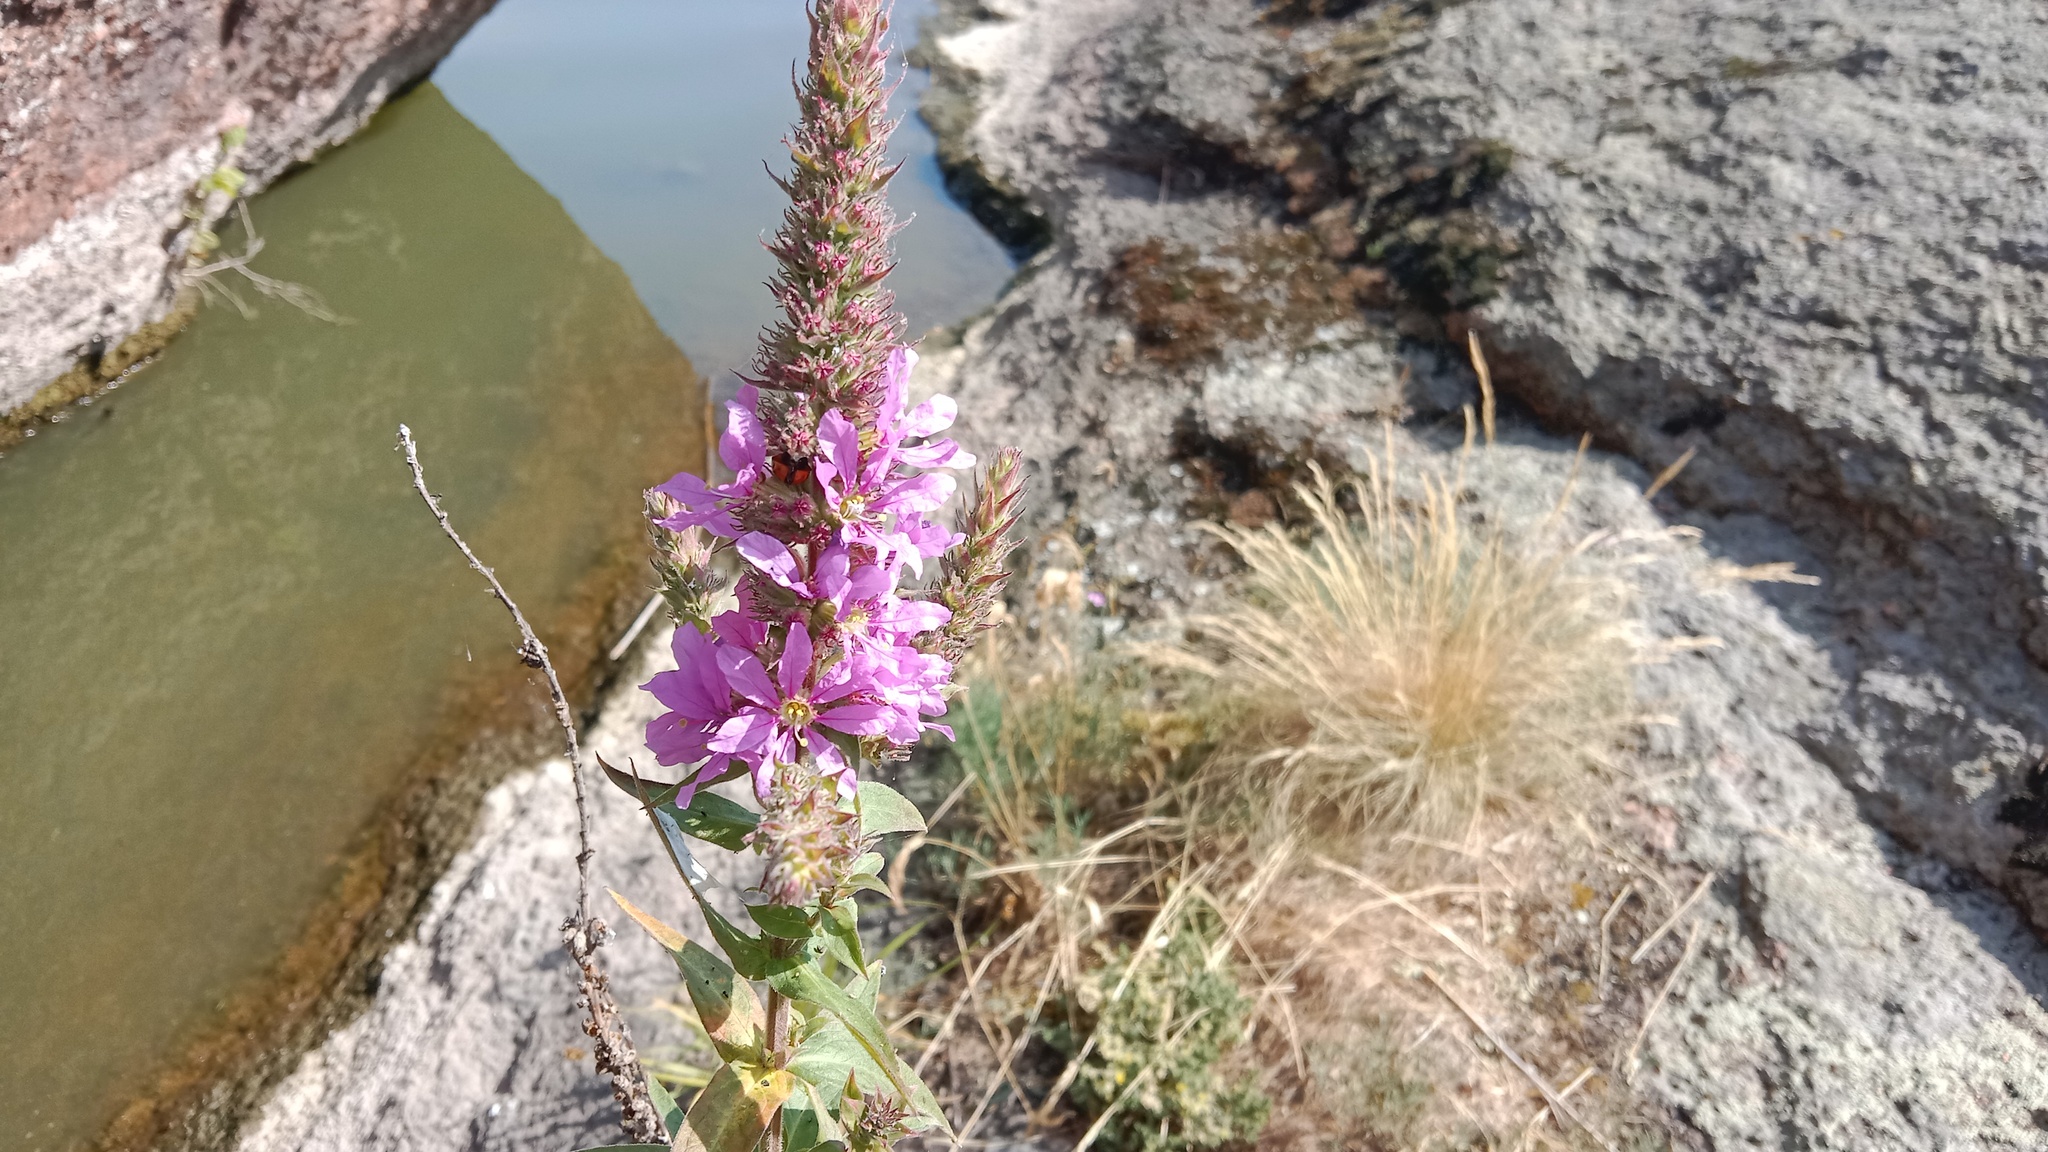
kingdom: Plantae
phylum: Tracheophyta
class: Magnoliopsida
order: Myrtales
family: Lythraceae
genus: Lythrum
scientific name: Lythrum salicaria
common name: Purple loosestrife
